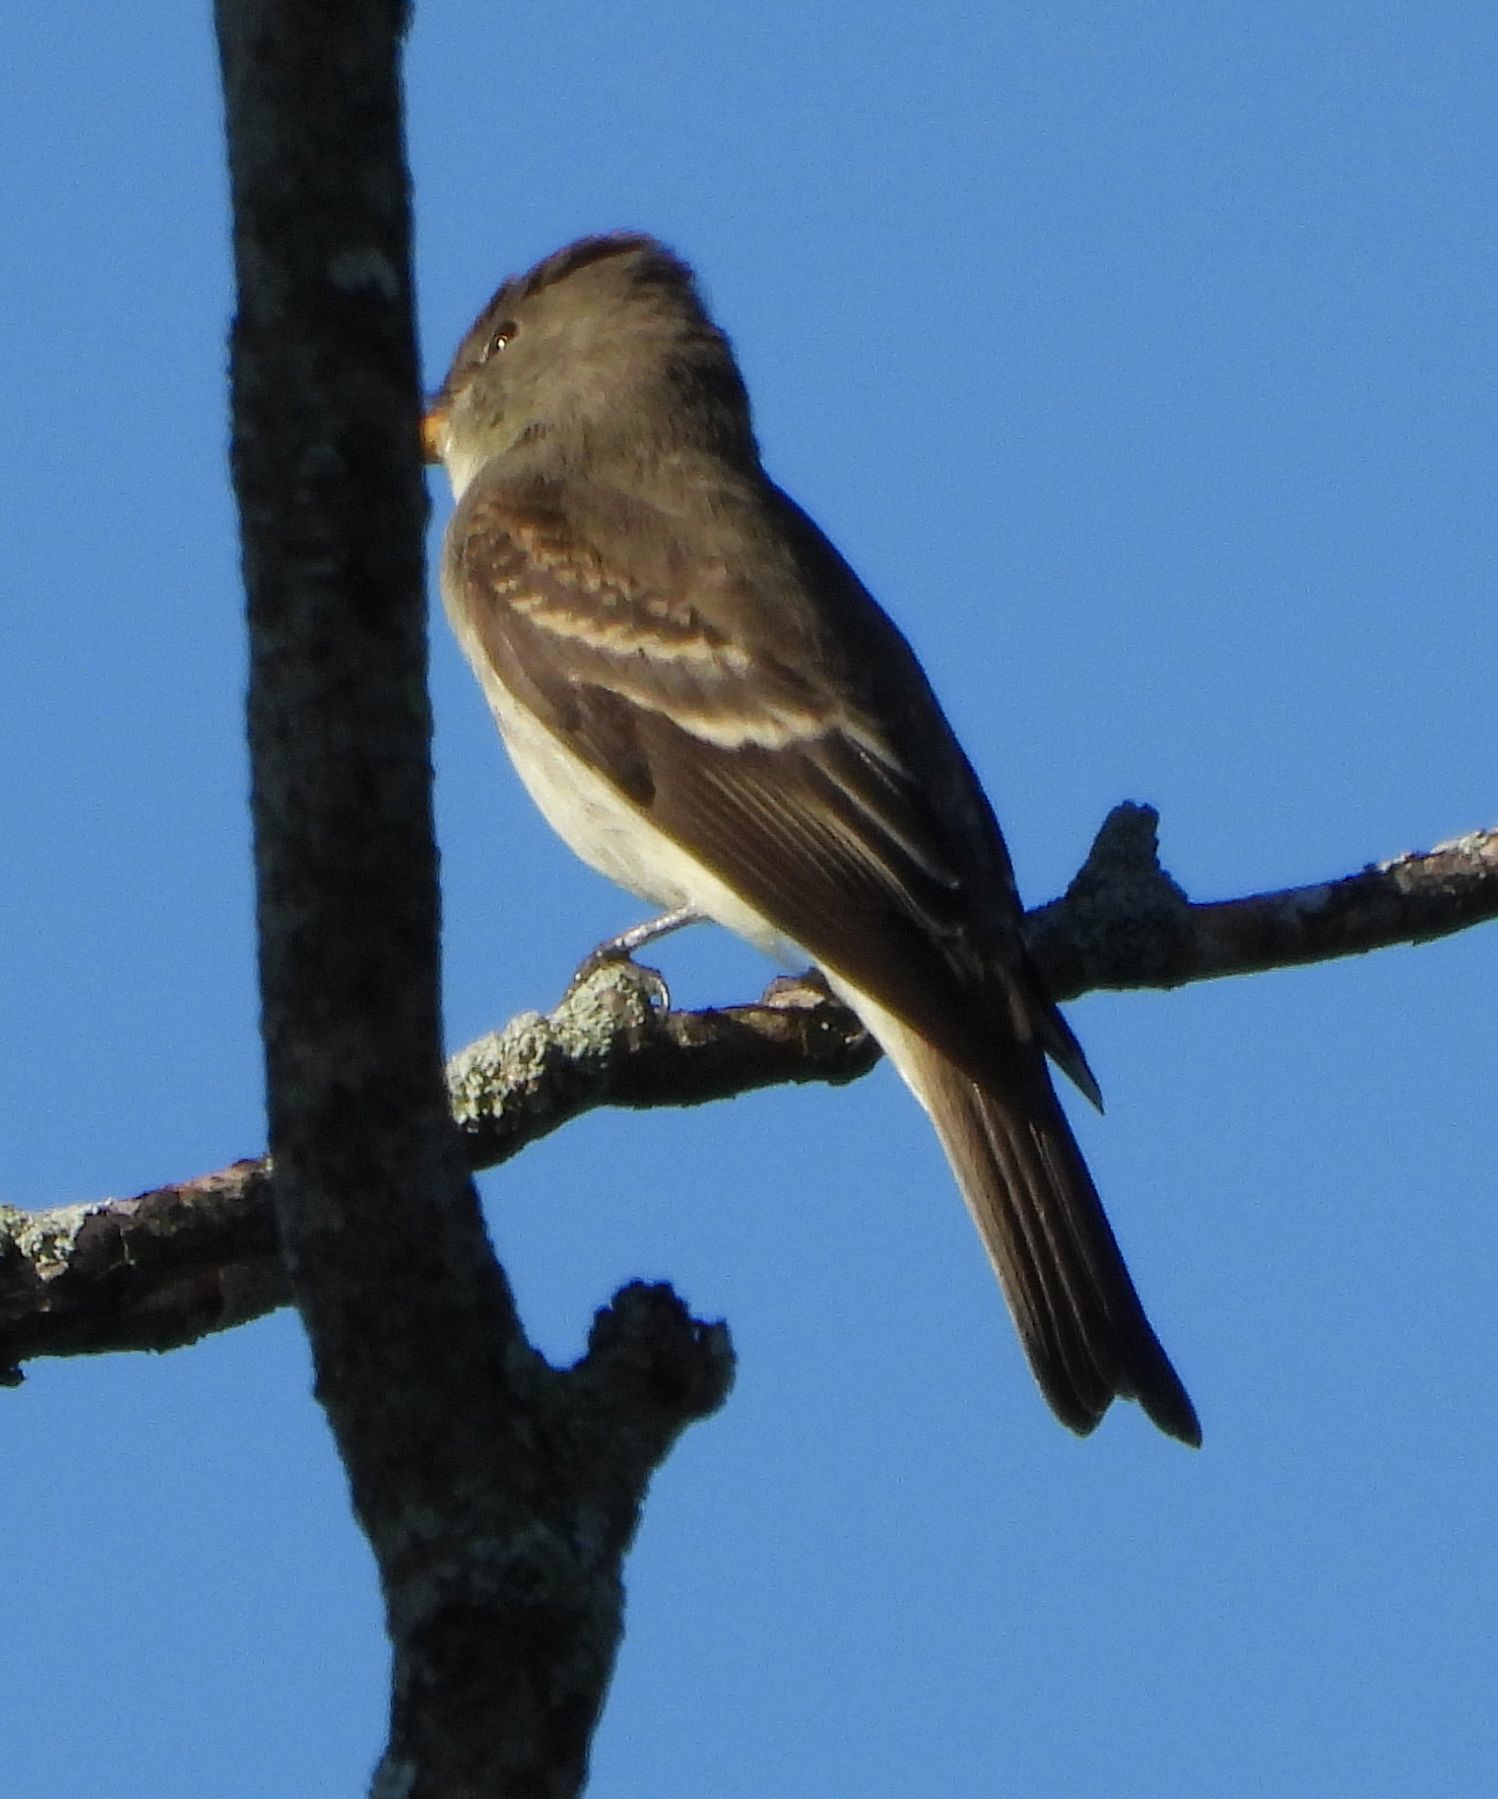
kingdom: Animalia
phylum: Chordata
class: Aves
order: Passeriformes
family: Tyrannidae
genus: Contopus
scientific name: Contopus virens
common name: Eastern wood-pewee
